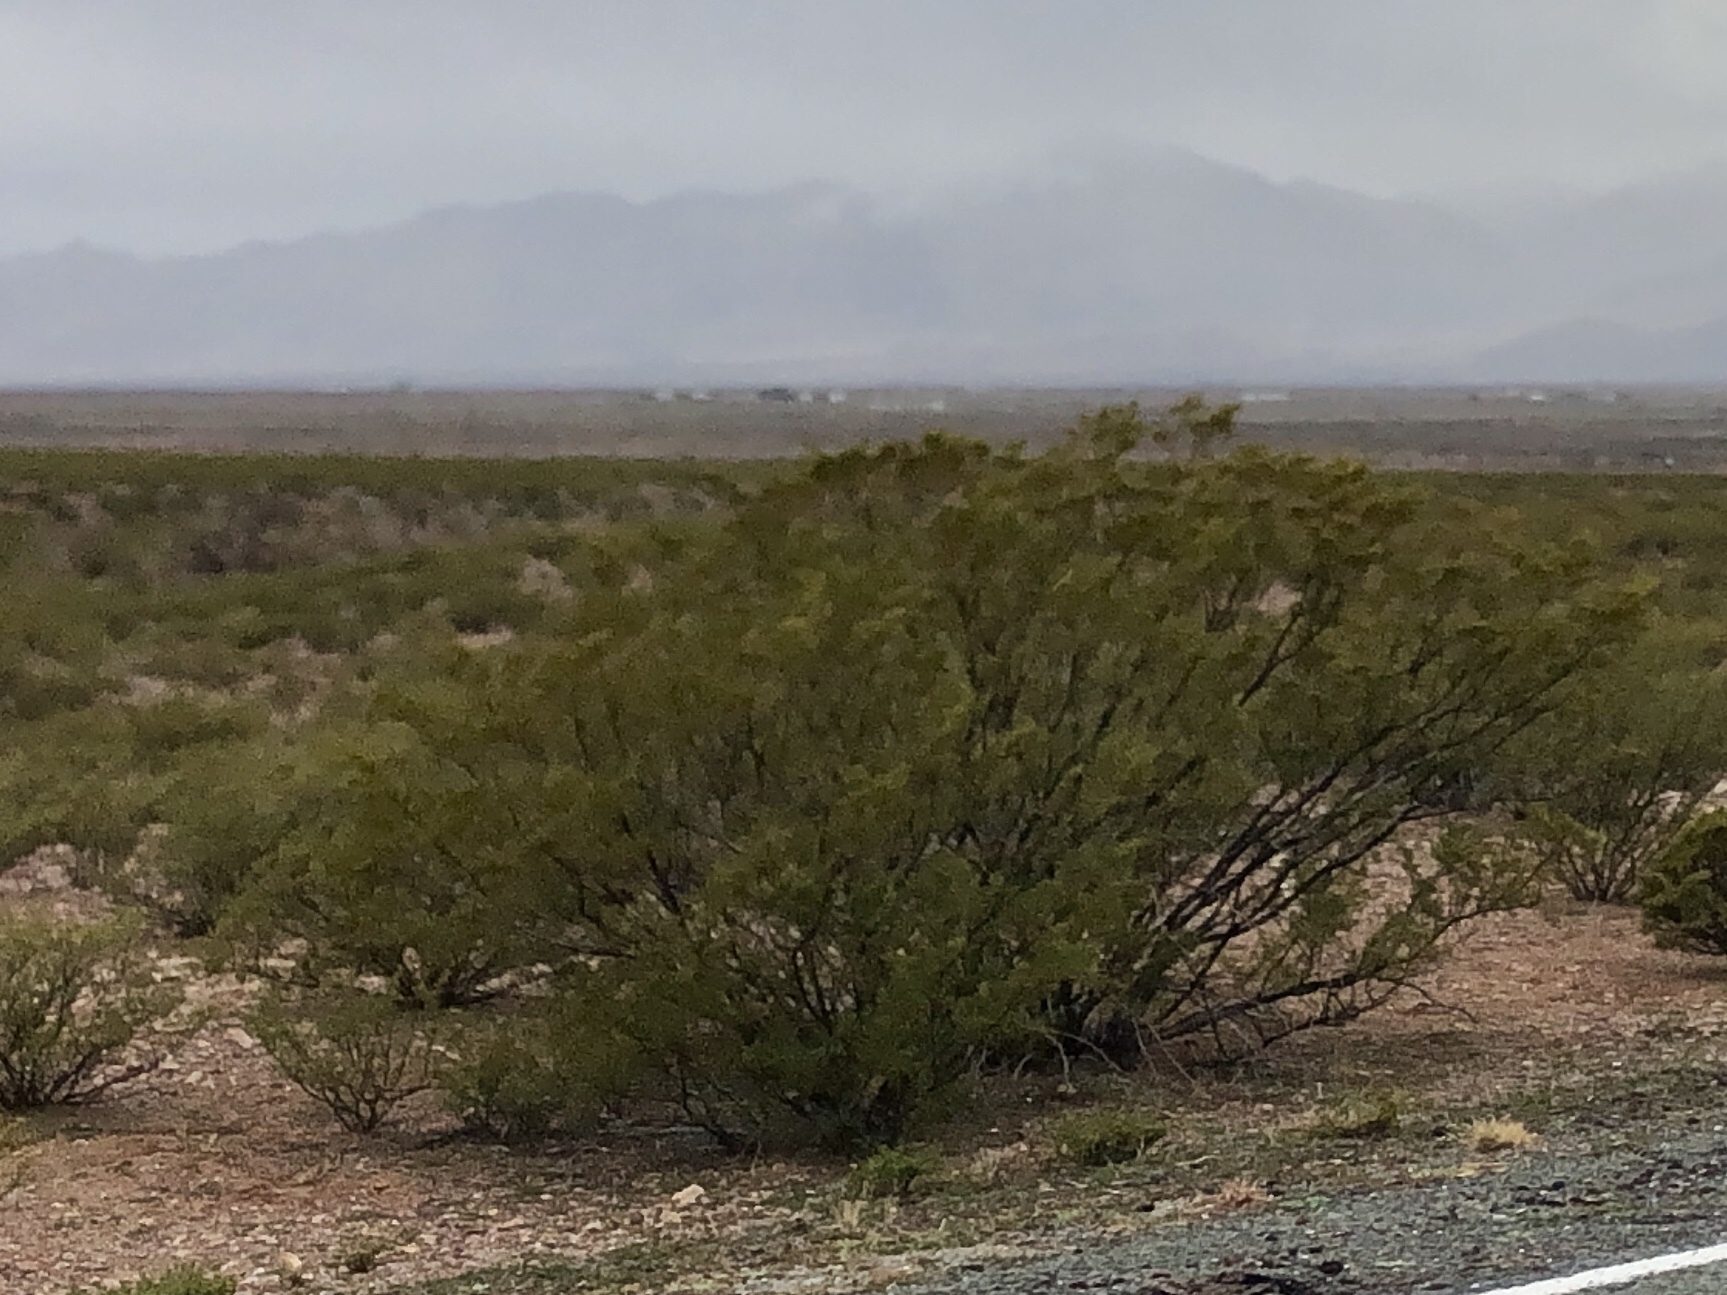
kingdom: Plantae
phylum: Tracheophyta
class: Magnoliopsida
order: Zygophyllales
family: Zygophyllaceae
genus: Larrea
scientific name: Larrea tridentata
